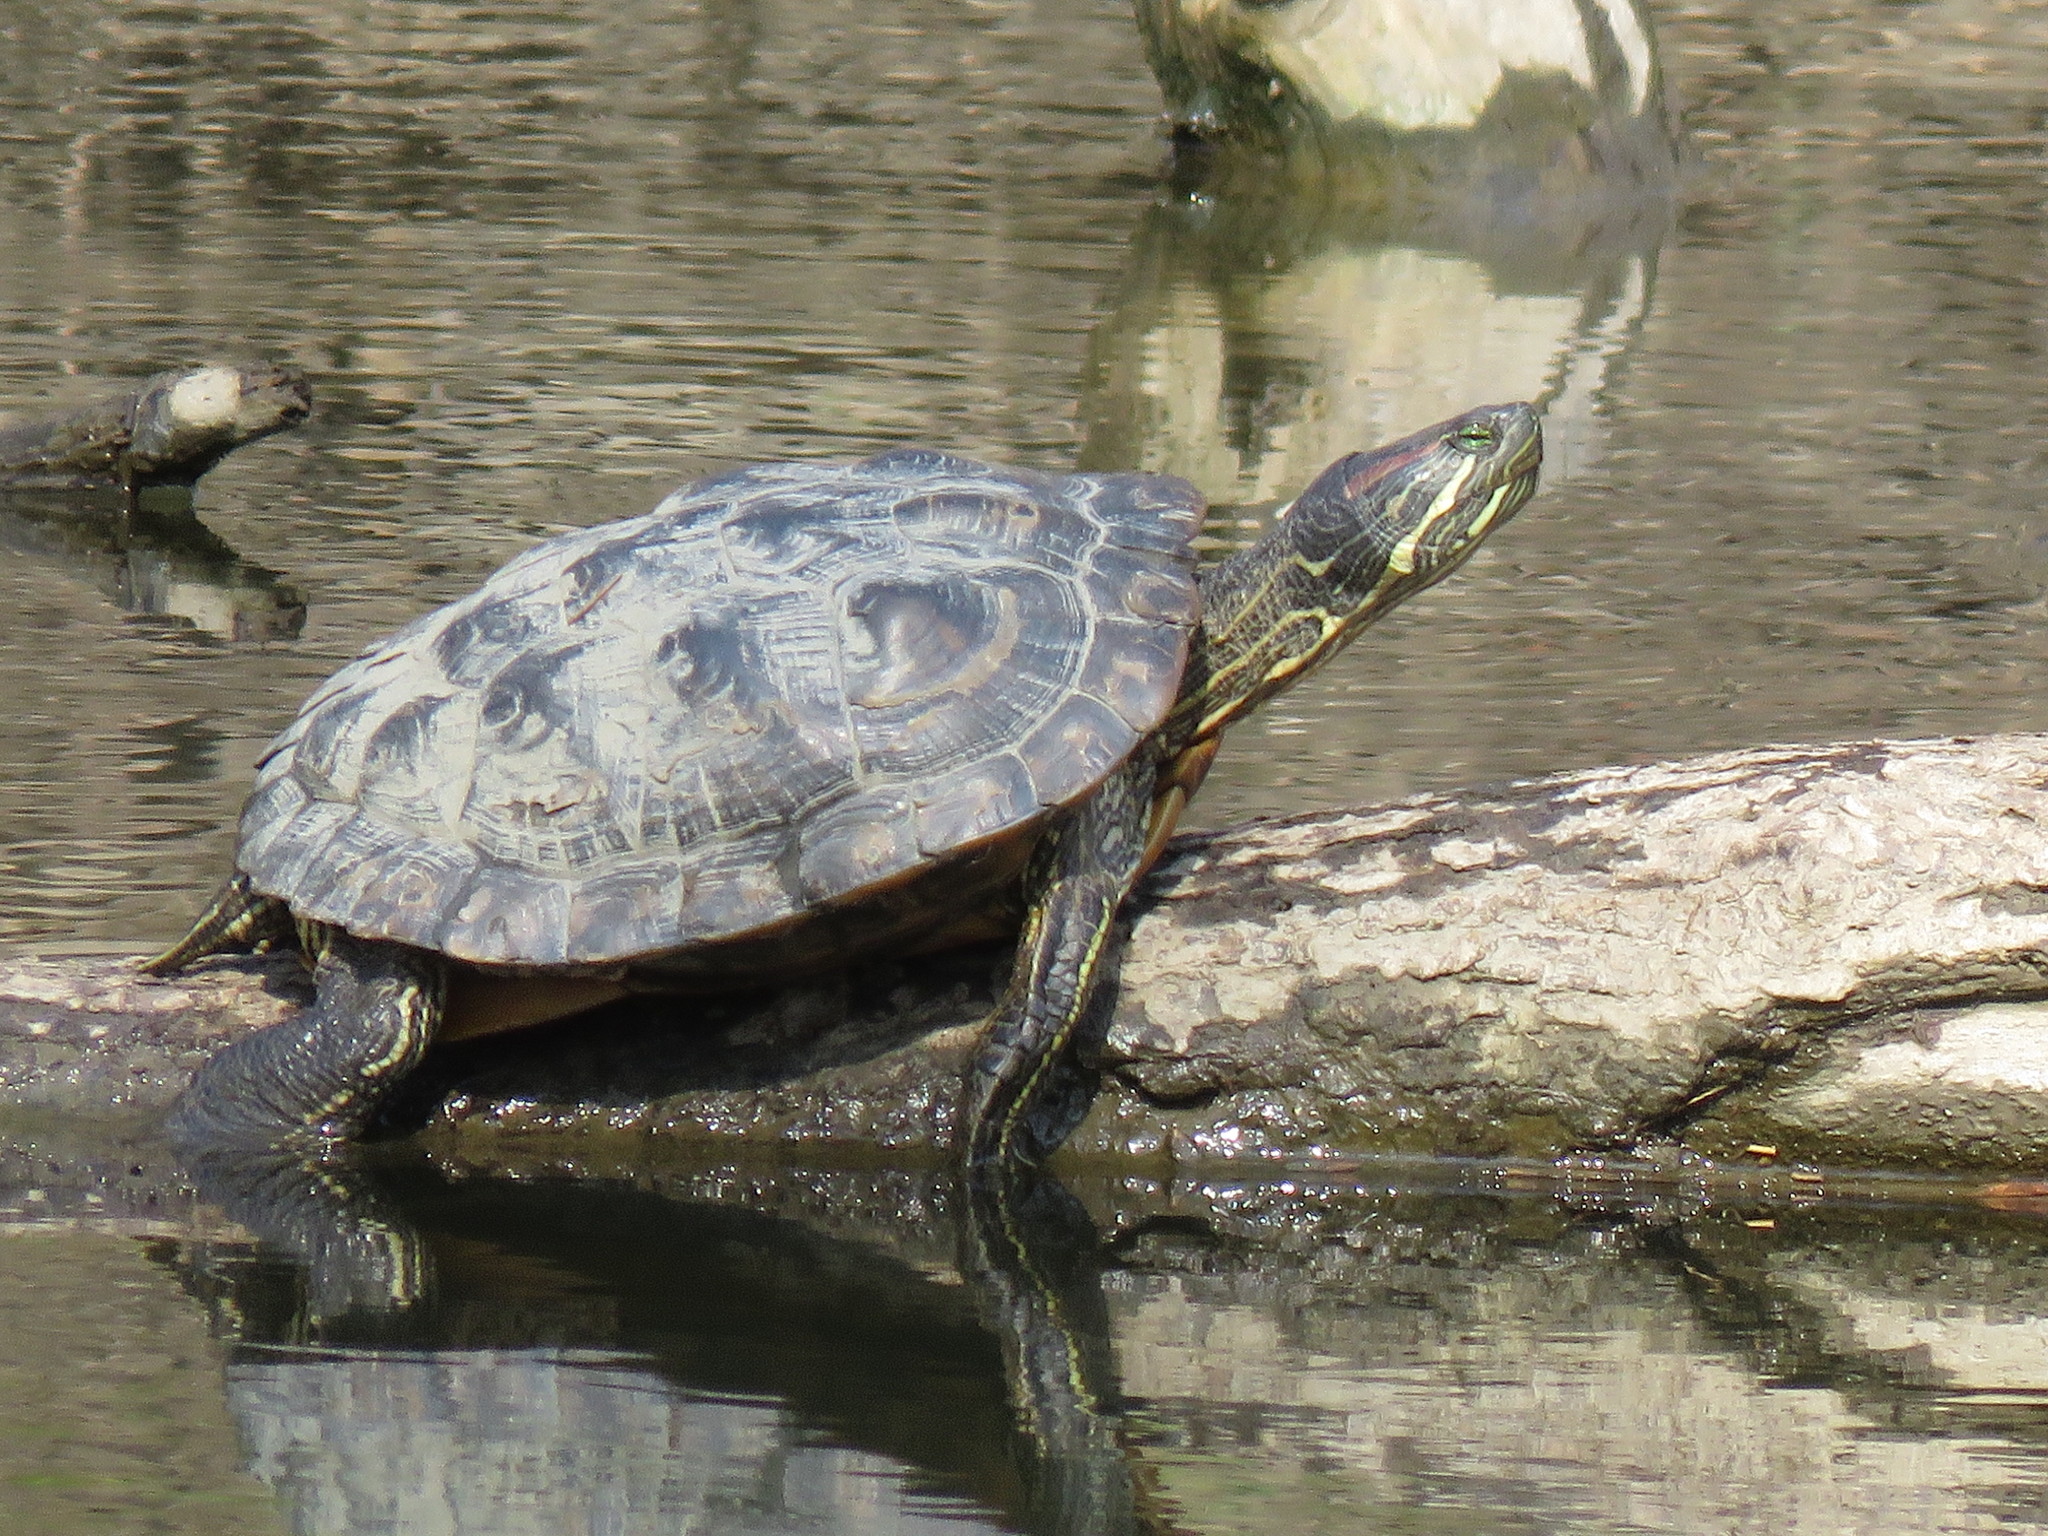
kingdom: Animalia
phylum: Chordata
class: Testudines
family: Emydidae
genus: Trachemys
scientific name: Trachemys scripta
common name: Slider
